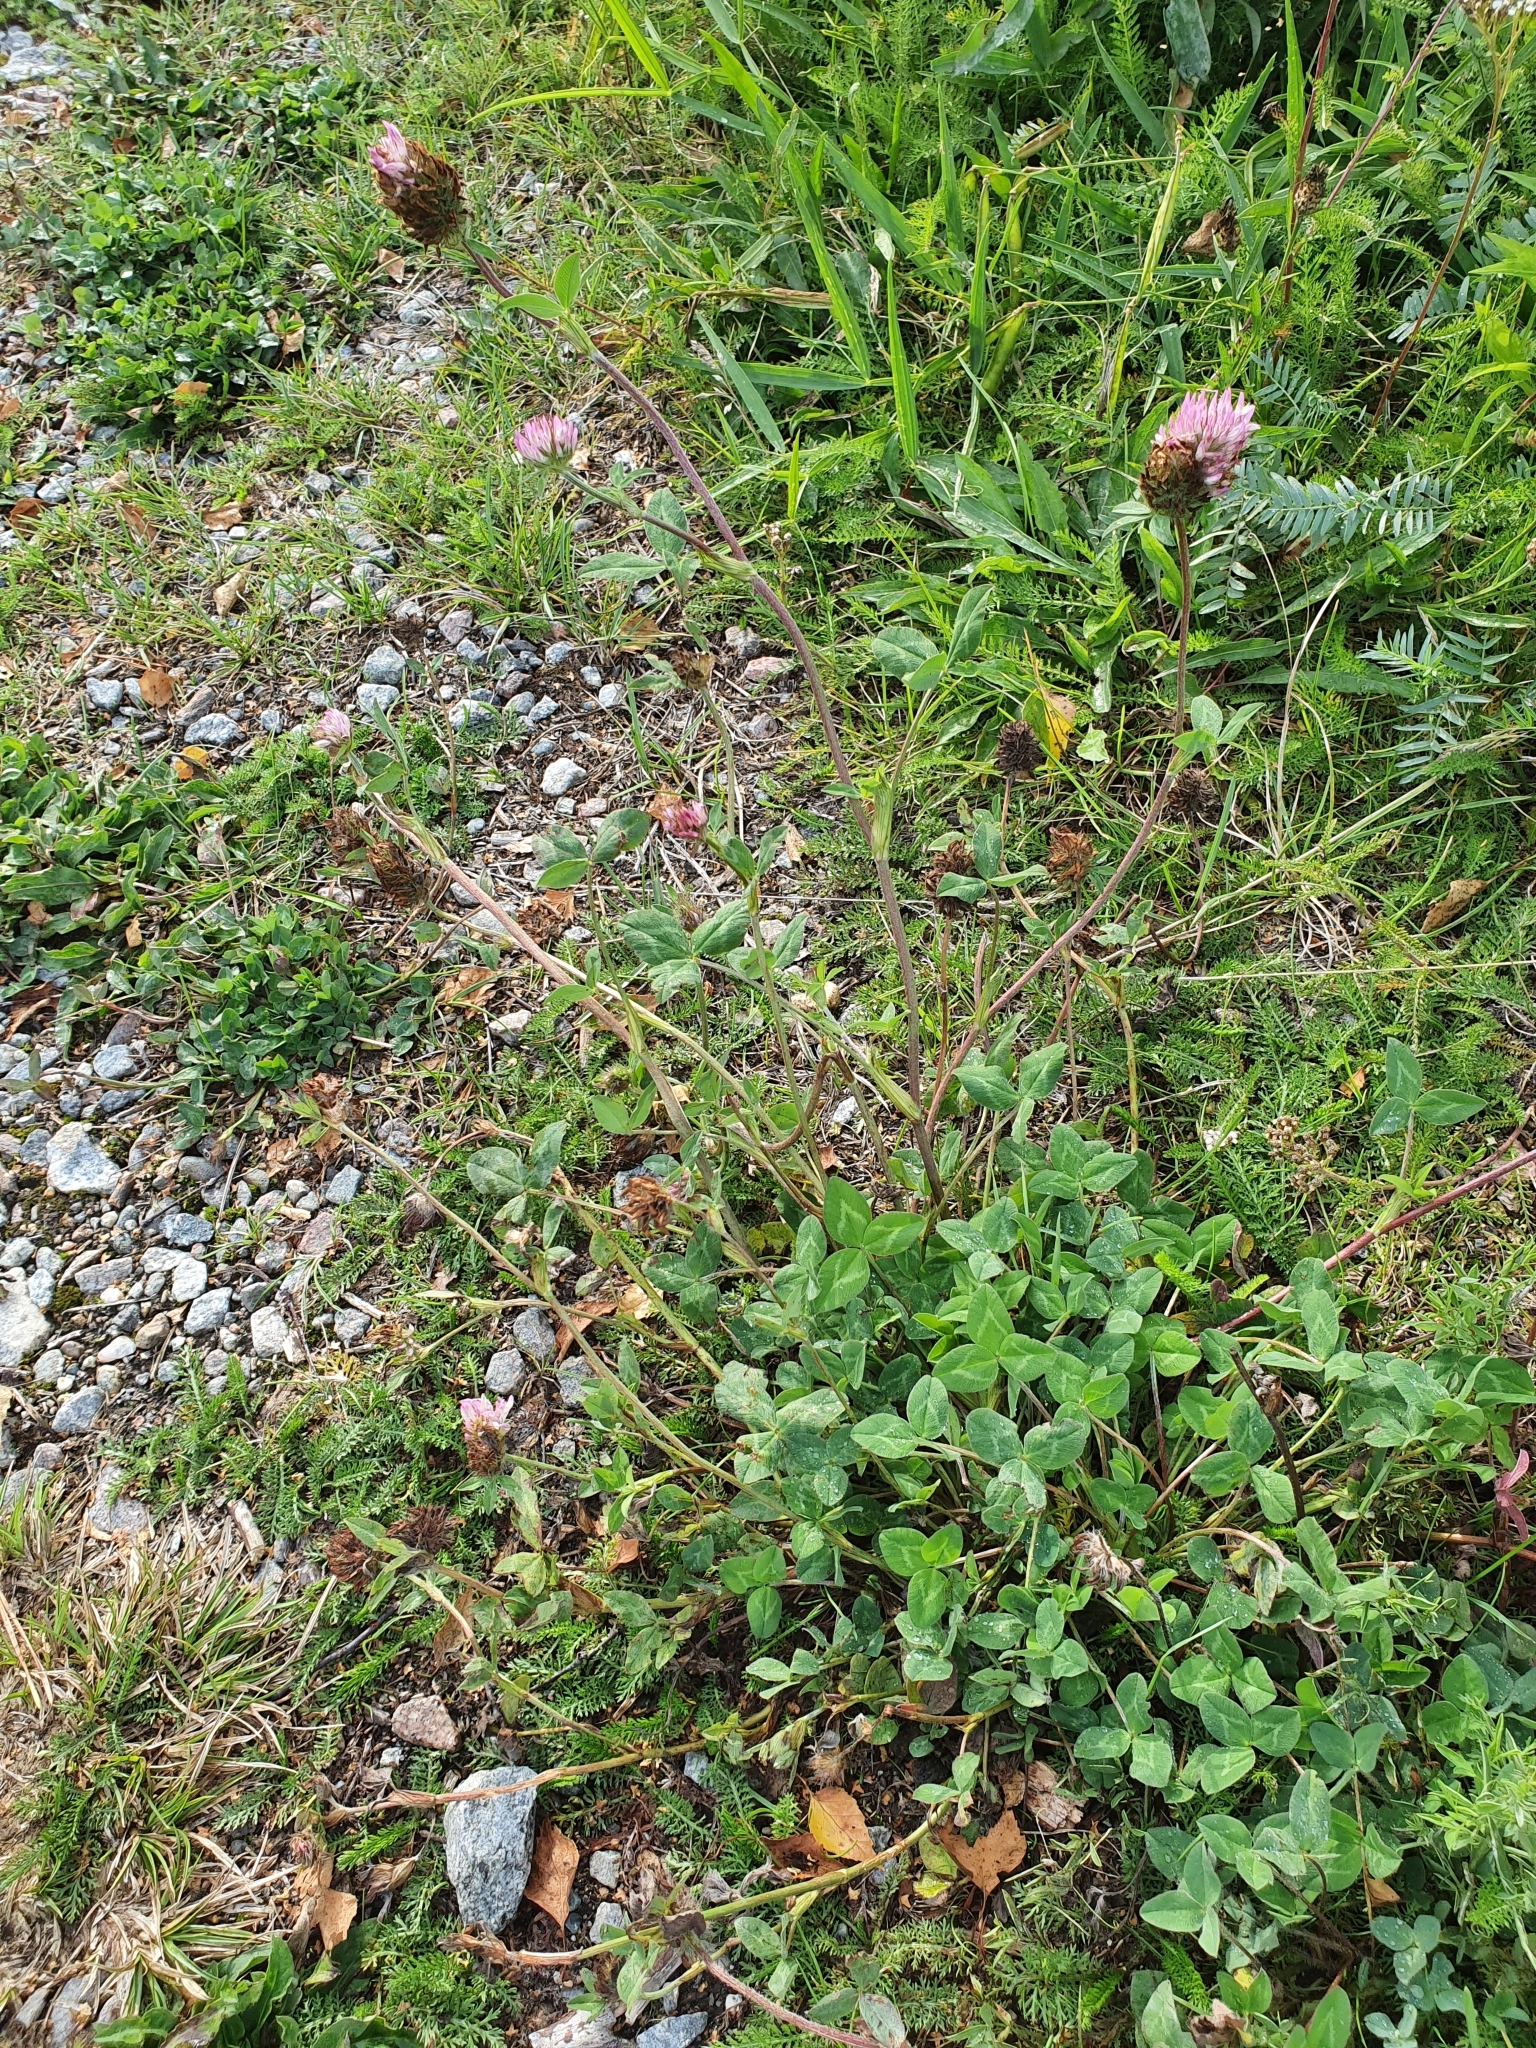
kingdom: Plantae
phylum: Tracheophyta
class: Magnoliopsida
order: Fabales
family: Fabaceae
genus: Trifolium
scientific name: Trifolium pratense
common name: Red clover
